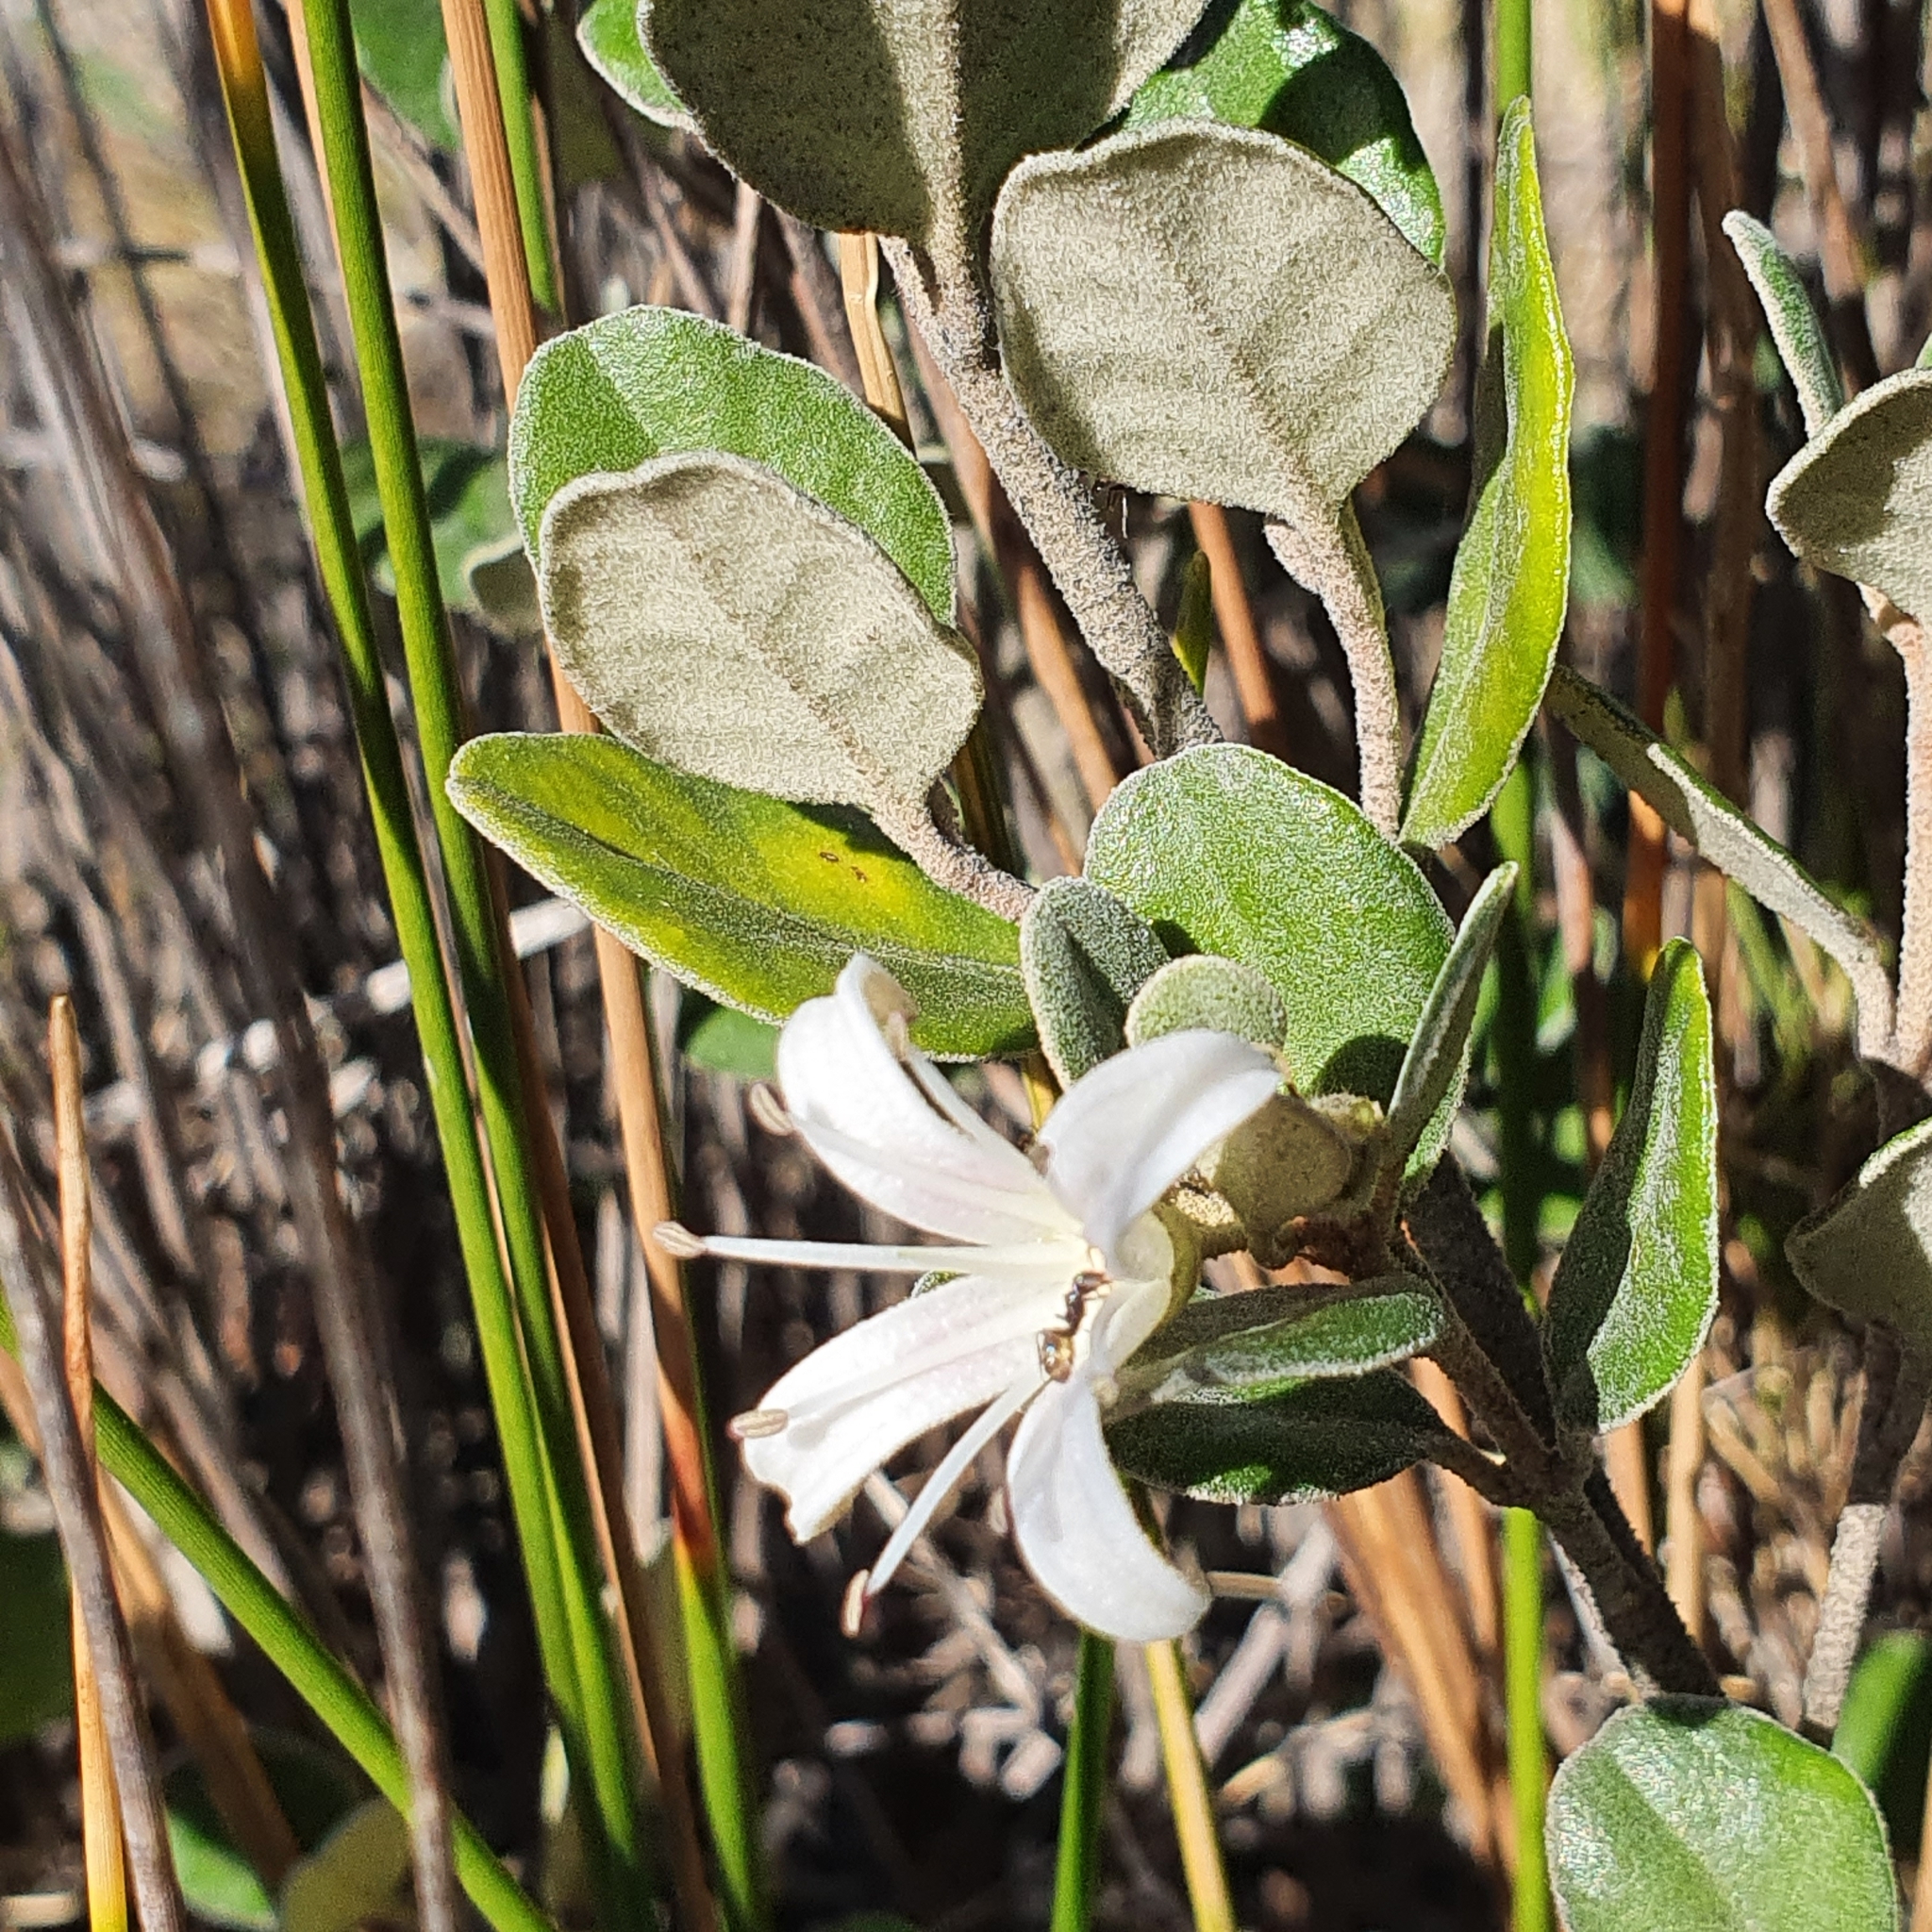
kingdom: Plantae
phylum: Tracheophyta
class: Magnoliopsida
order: Sapindales
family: Rutaceae
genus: Correa
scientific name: Correa alba
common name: White correa
